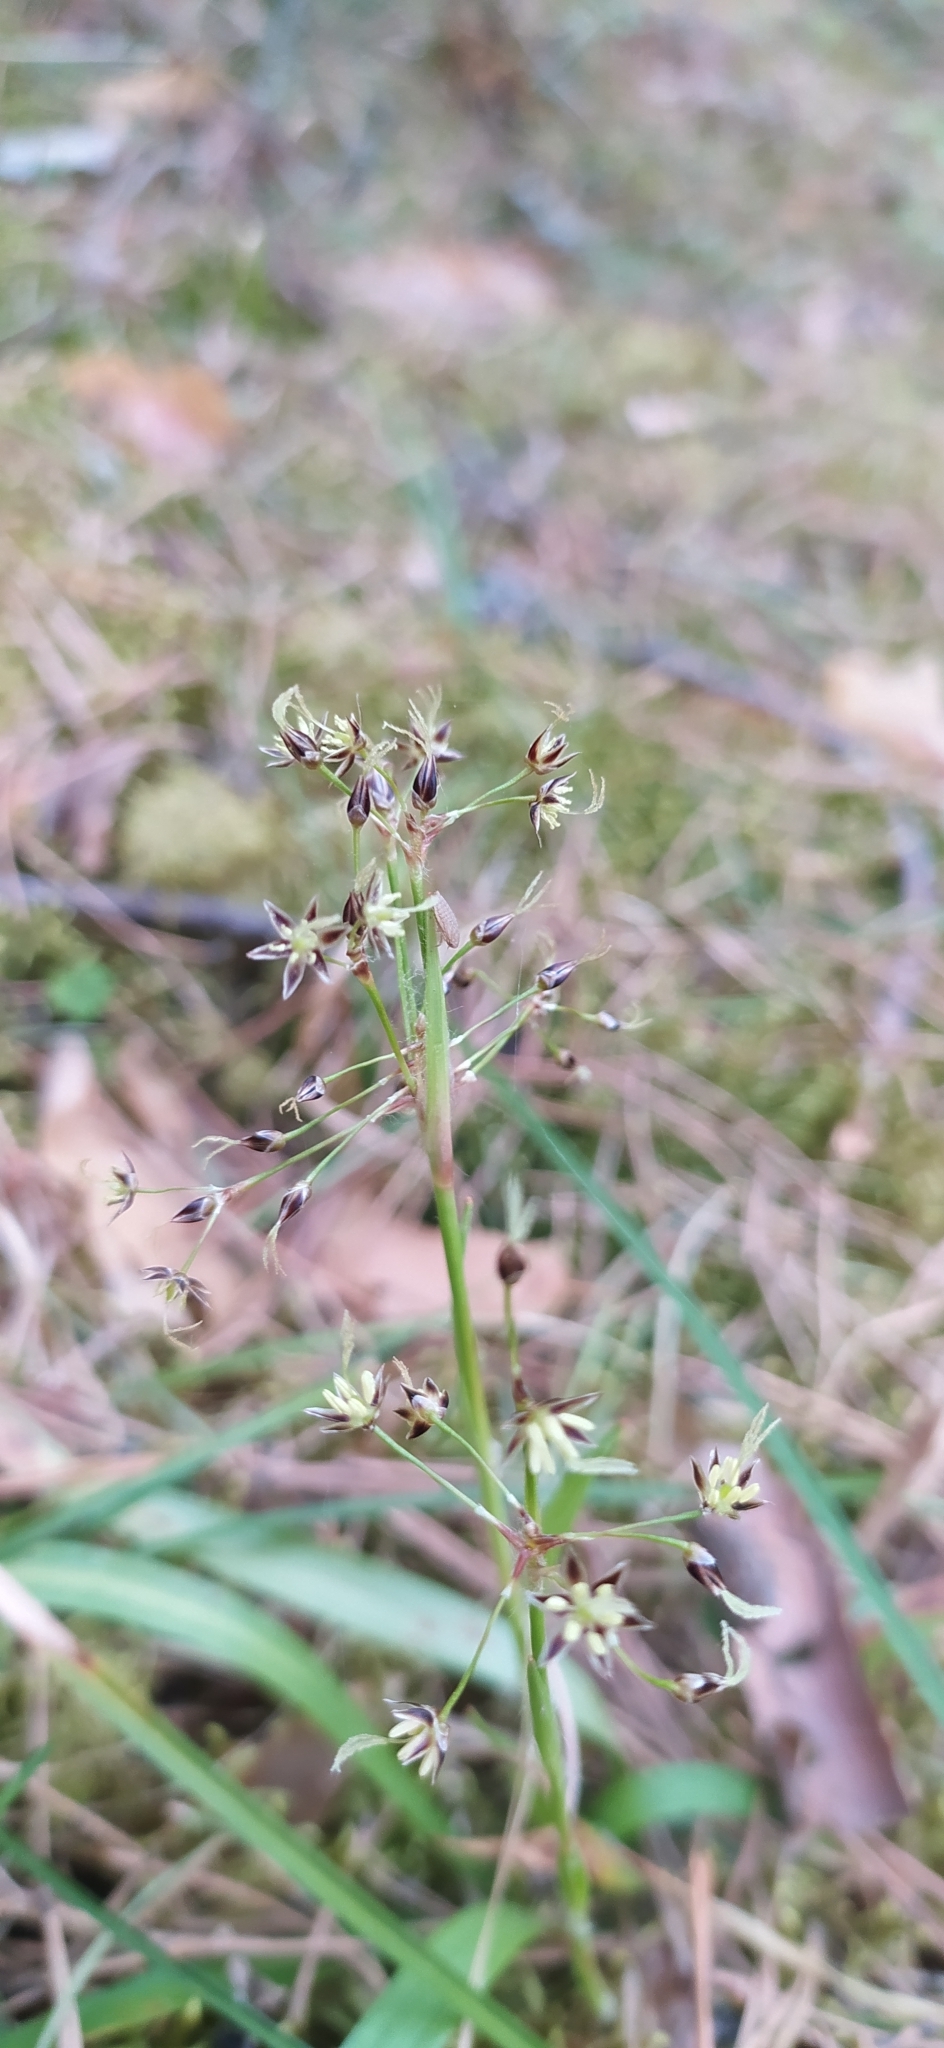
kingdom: Plantae
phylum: Tracheophyta
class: Liliopsida
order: Poales
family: Juncaceae
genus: Luzula
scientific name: Luzula pilosa
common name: Hairy wood-rush
